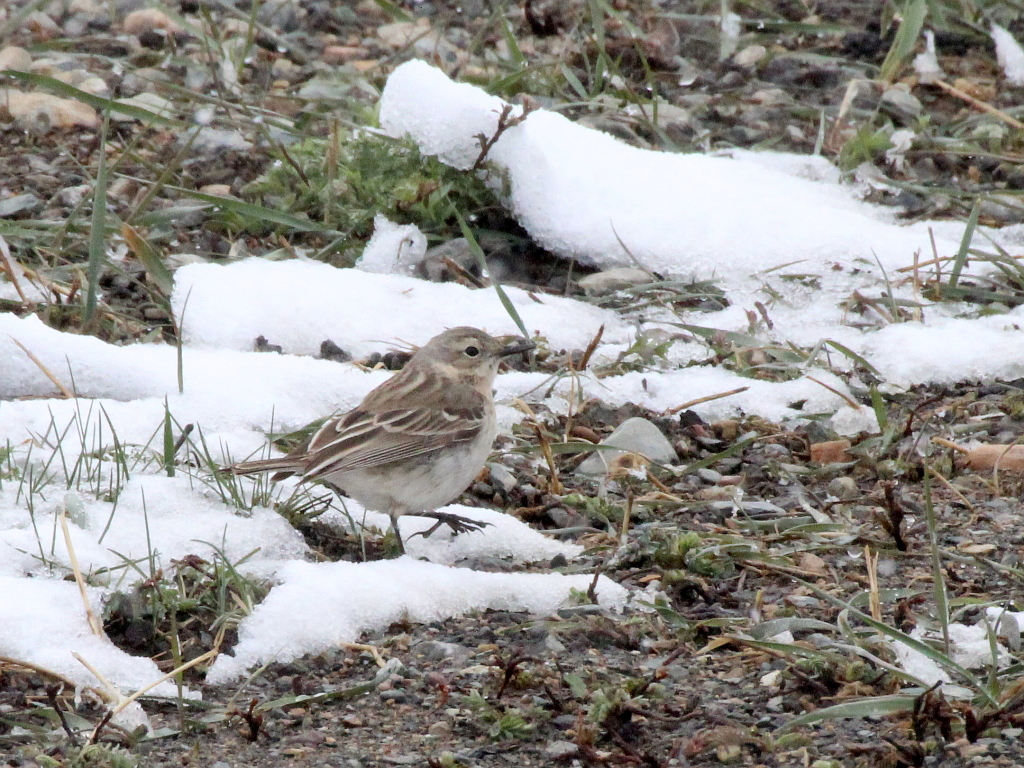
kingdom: Animalia
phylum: Chordata
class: Aves
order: Passeriformes
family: Motacillidae
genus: Anthus
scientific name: Anthus spinoletta
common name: Water pipit
